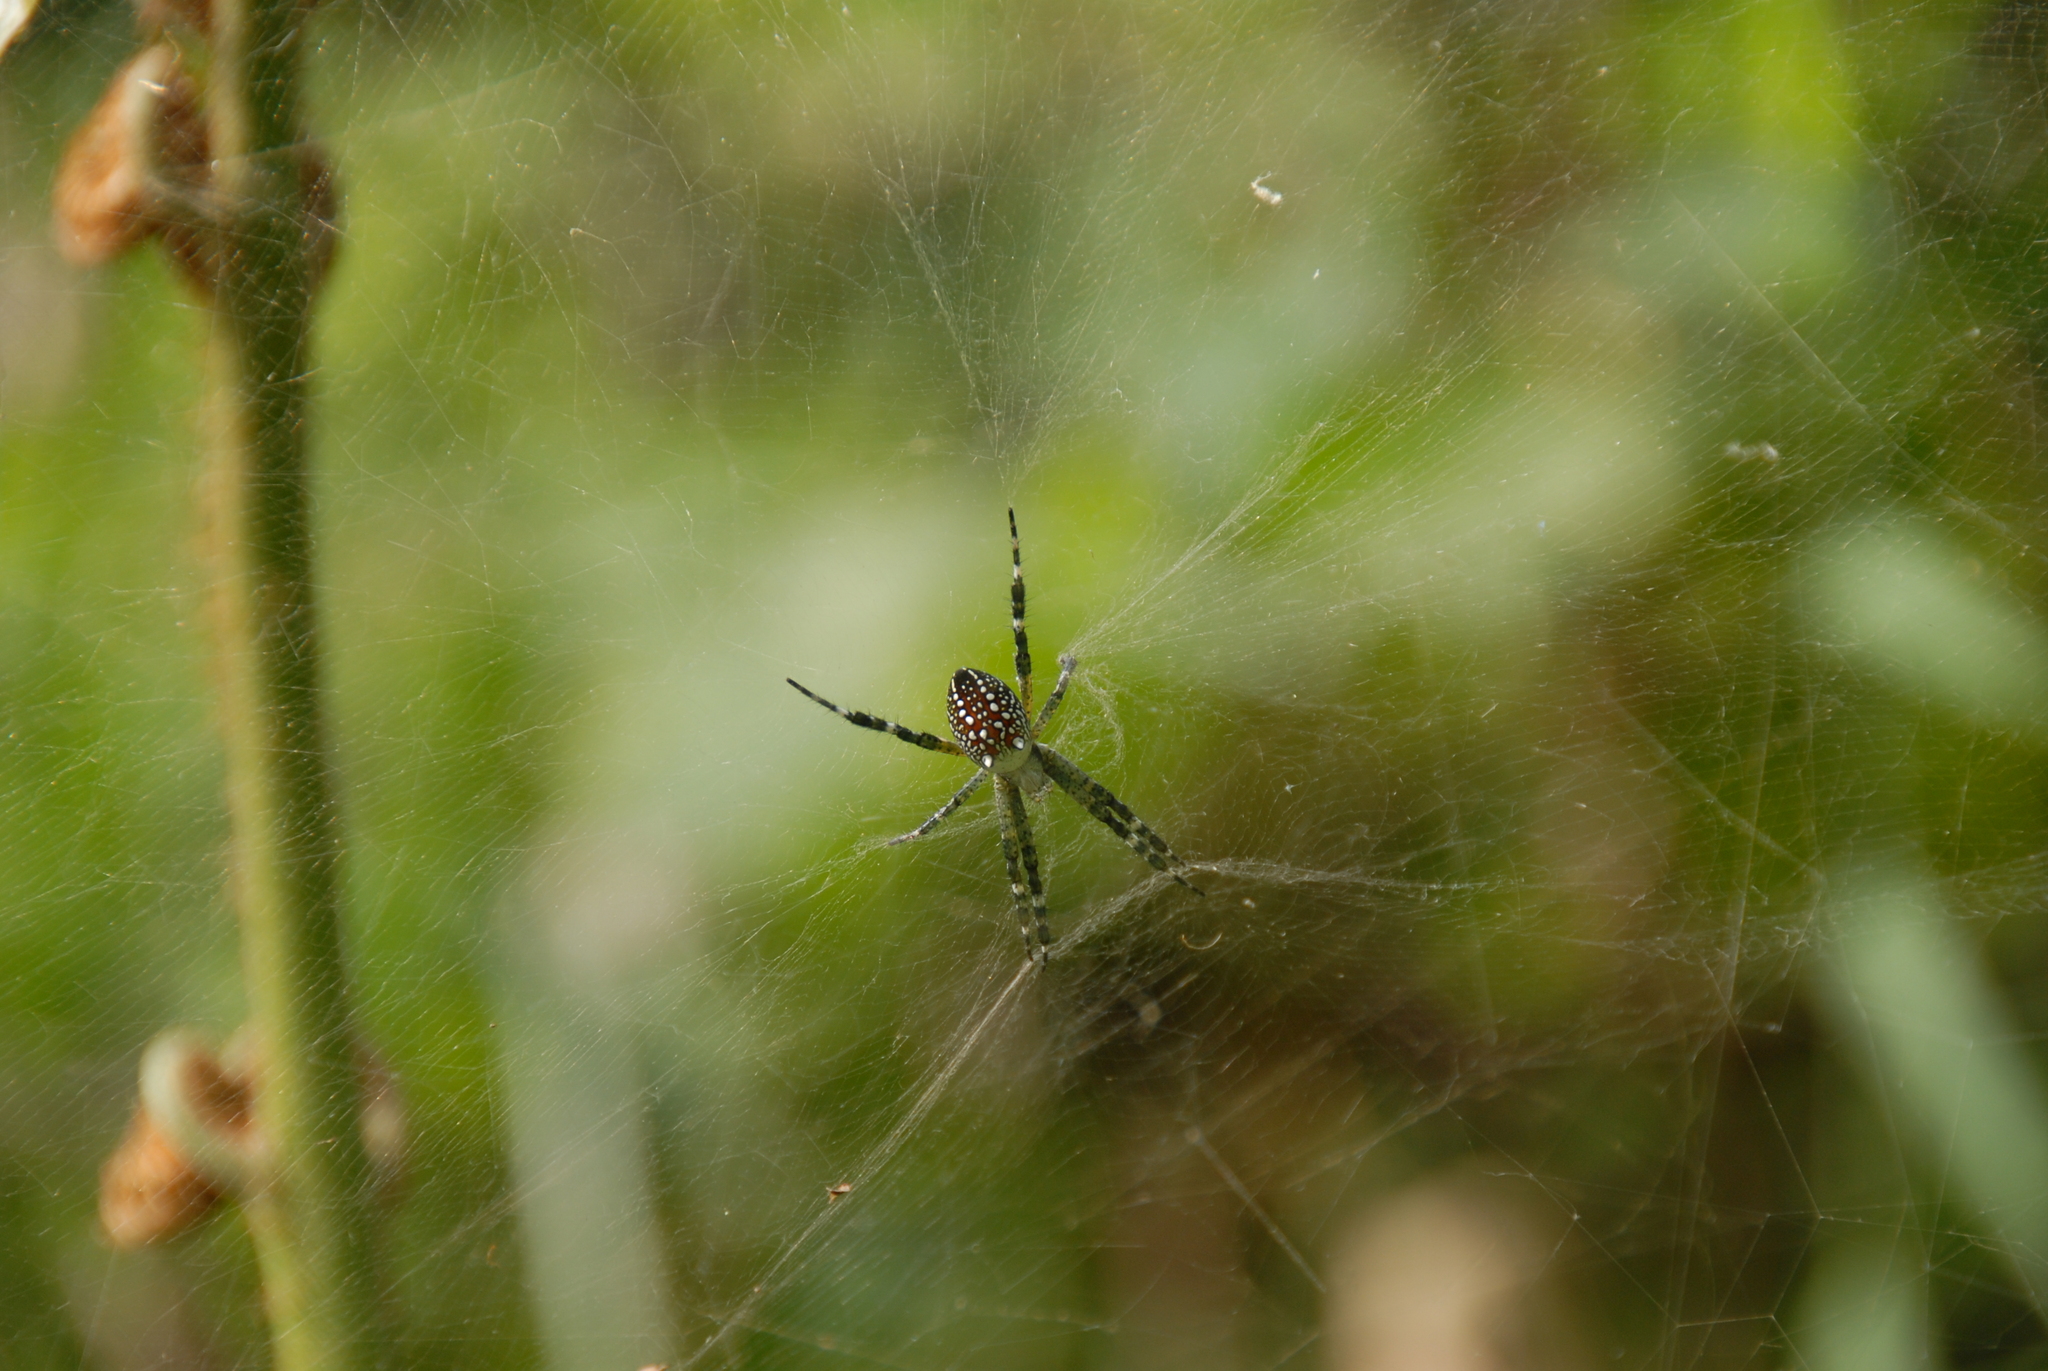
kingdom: Chromista
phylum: Ochrophyta
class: Dictyochophyceae
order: Pedinellales
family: Cyrtophoraceae
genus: Cyrtophora
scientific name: Cyrtophora moluccensis
